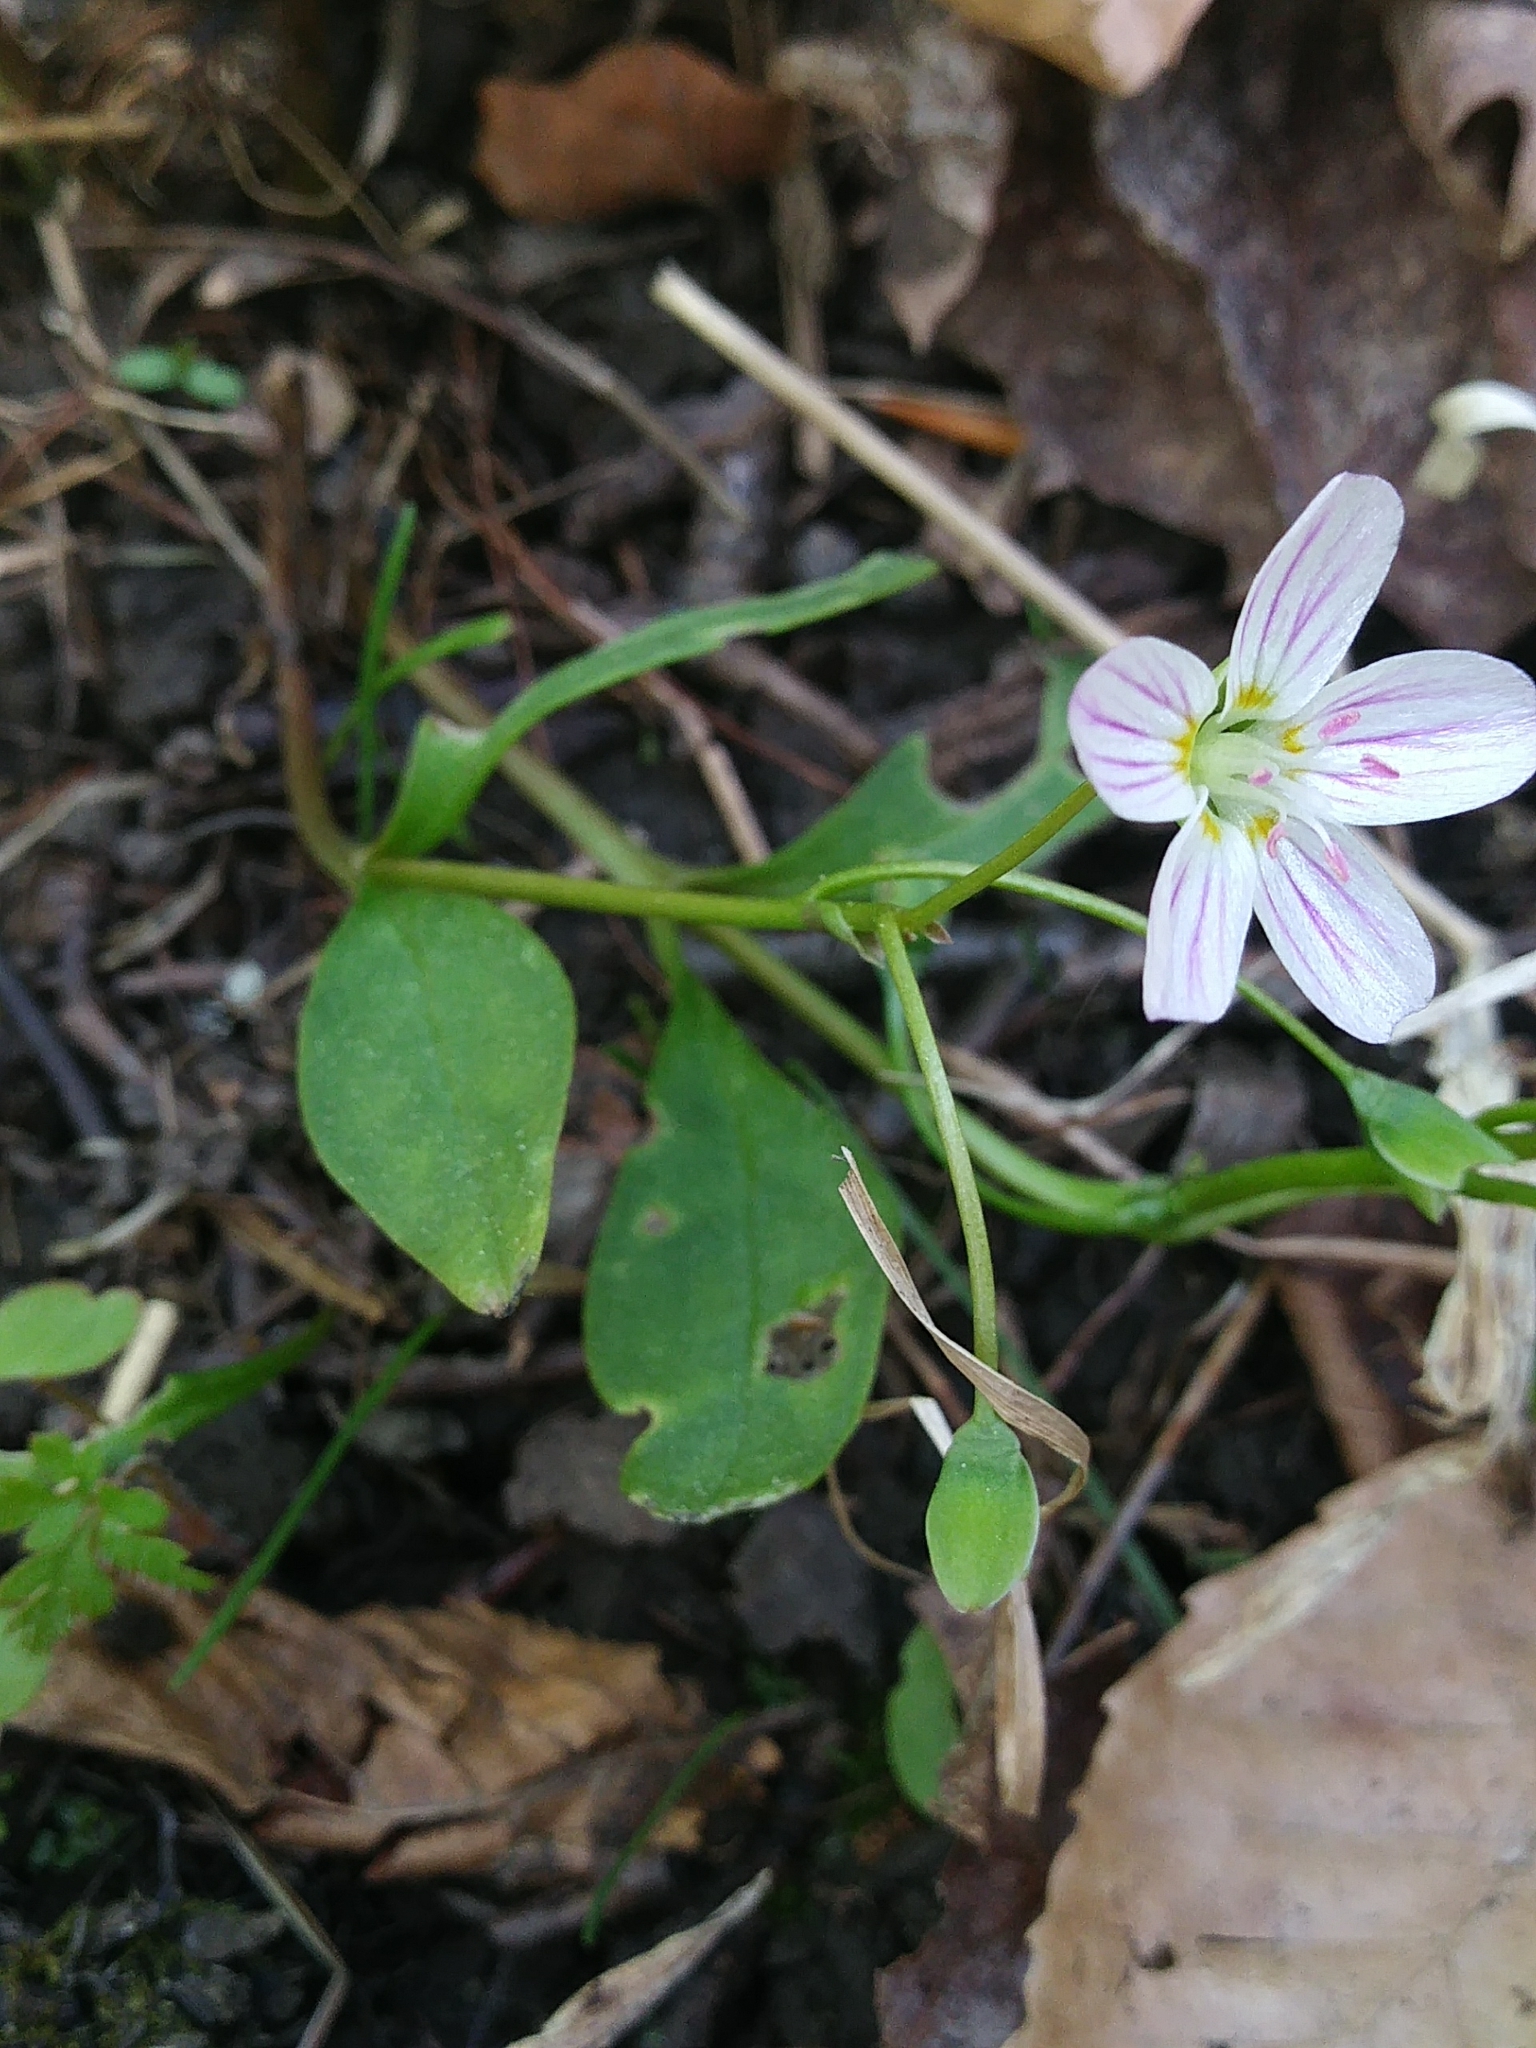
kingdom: Plantae
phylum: Tracheophyta
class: Magnoliopsida
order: Caryophyllales
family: Montiaceae
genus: Claytonia
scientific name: Claytonia caroliniana
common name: Carolina spring beauty
